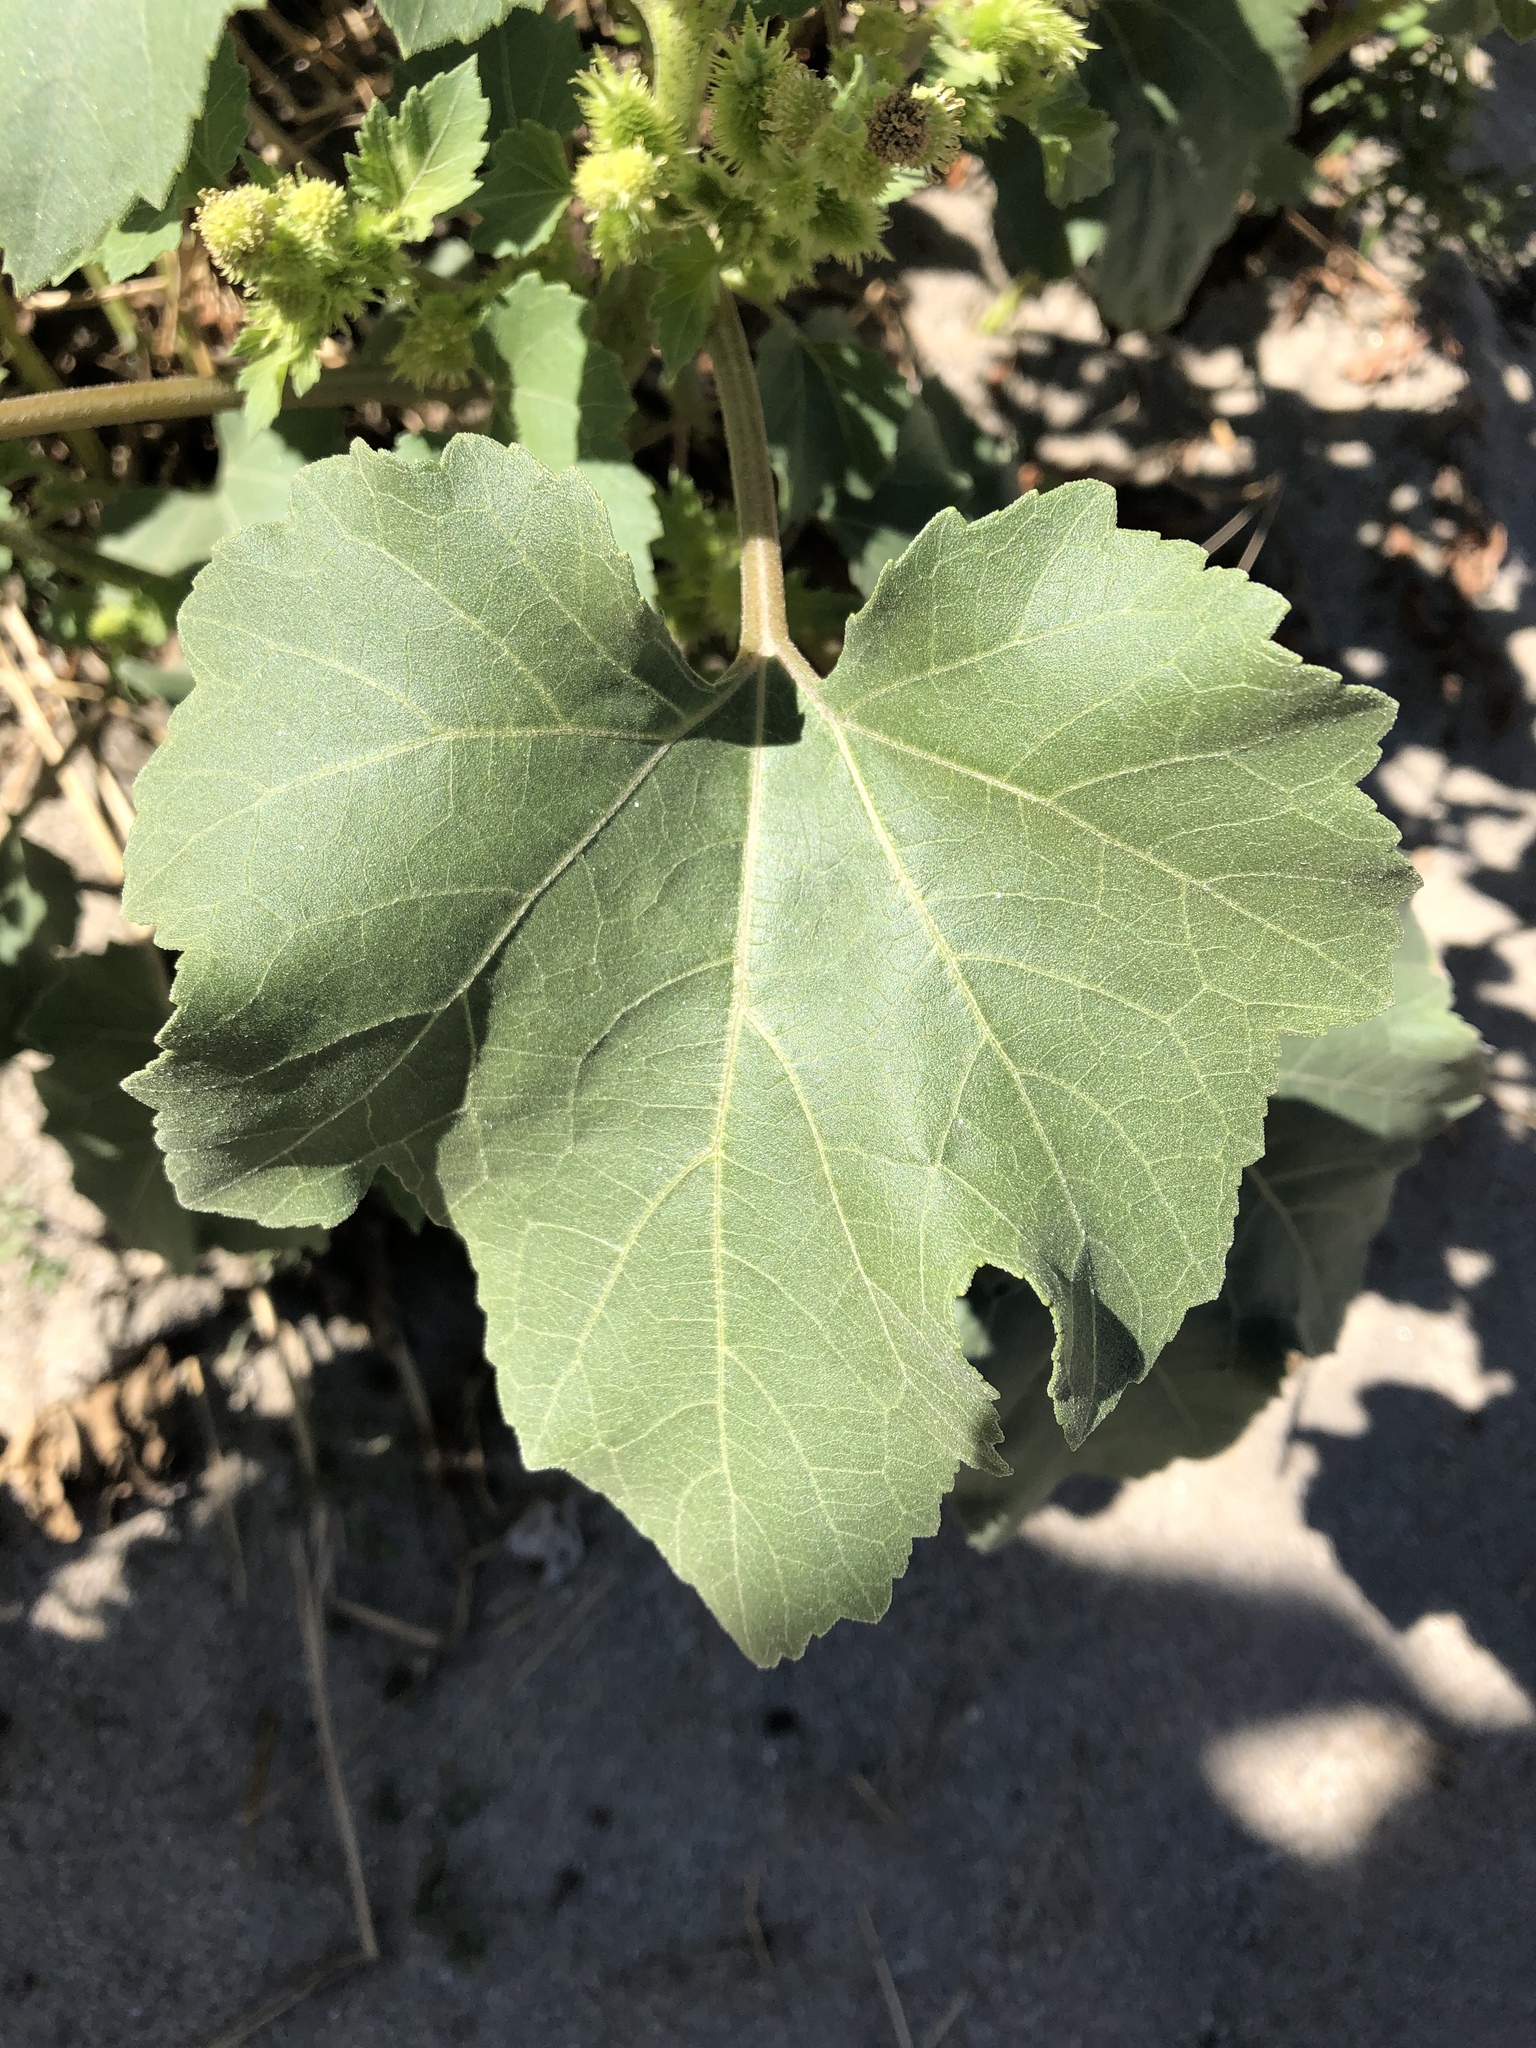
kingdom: Plantae
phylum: Tracheophyta
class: Magnoliopsida
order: Asterales
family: Asteraceae
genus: Xanthium
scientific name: Xanthium strumarium
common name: Rough cocklebur
